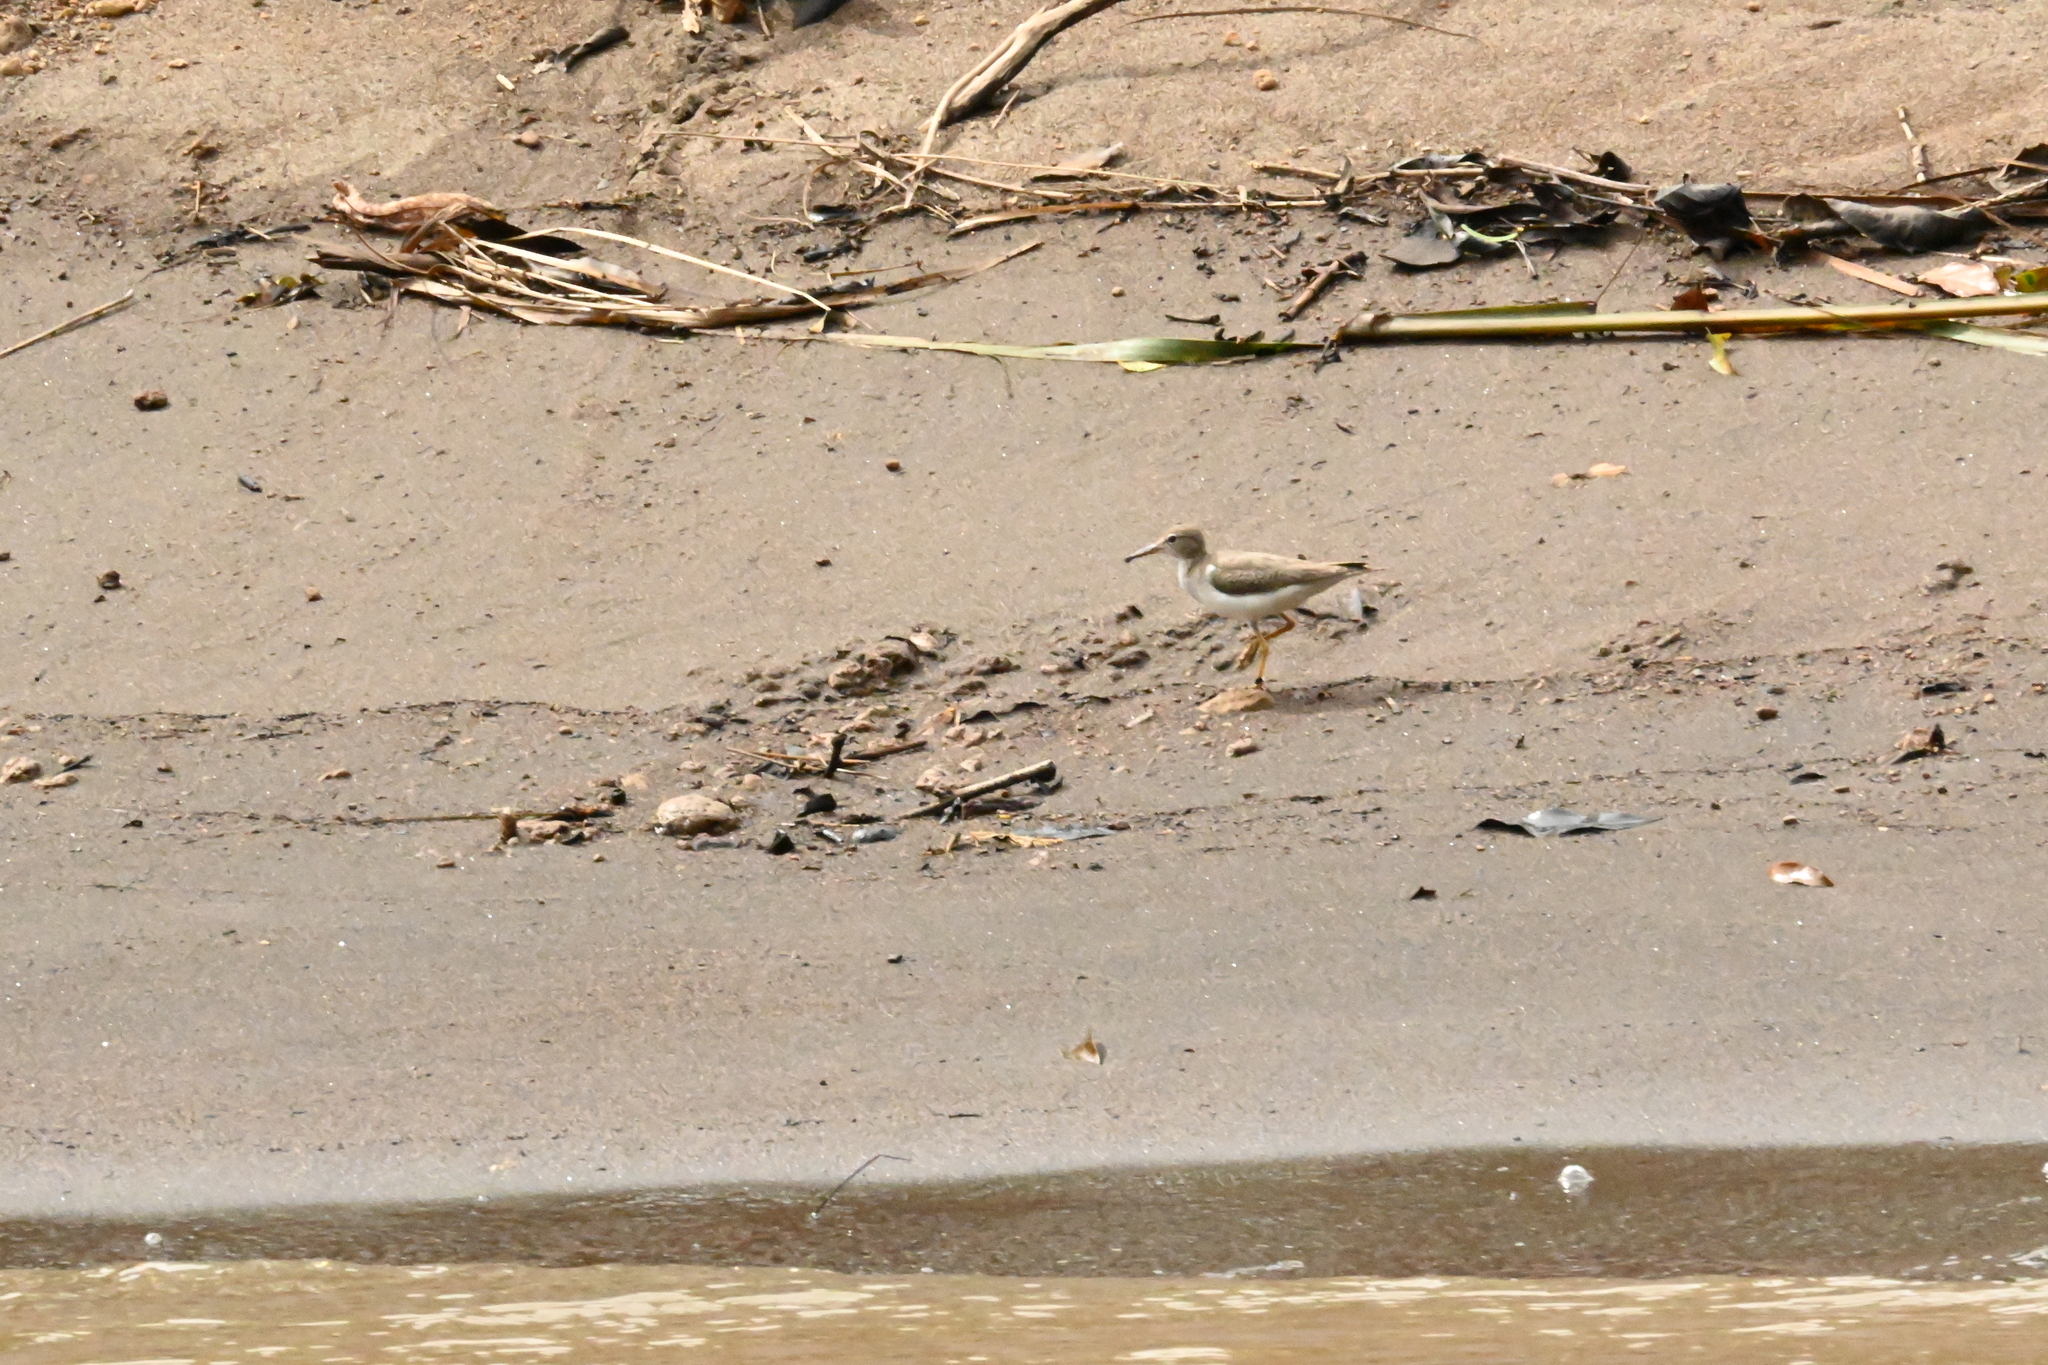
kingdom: Animalia
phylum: Chordata
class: Aves
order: Charadriiformes
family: Scolopacidae
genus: Actitis
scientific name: Actitis macularius
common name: Spotted sandpiper
